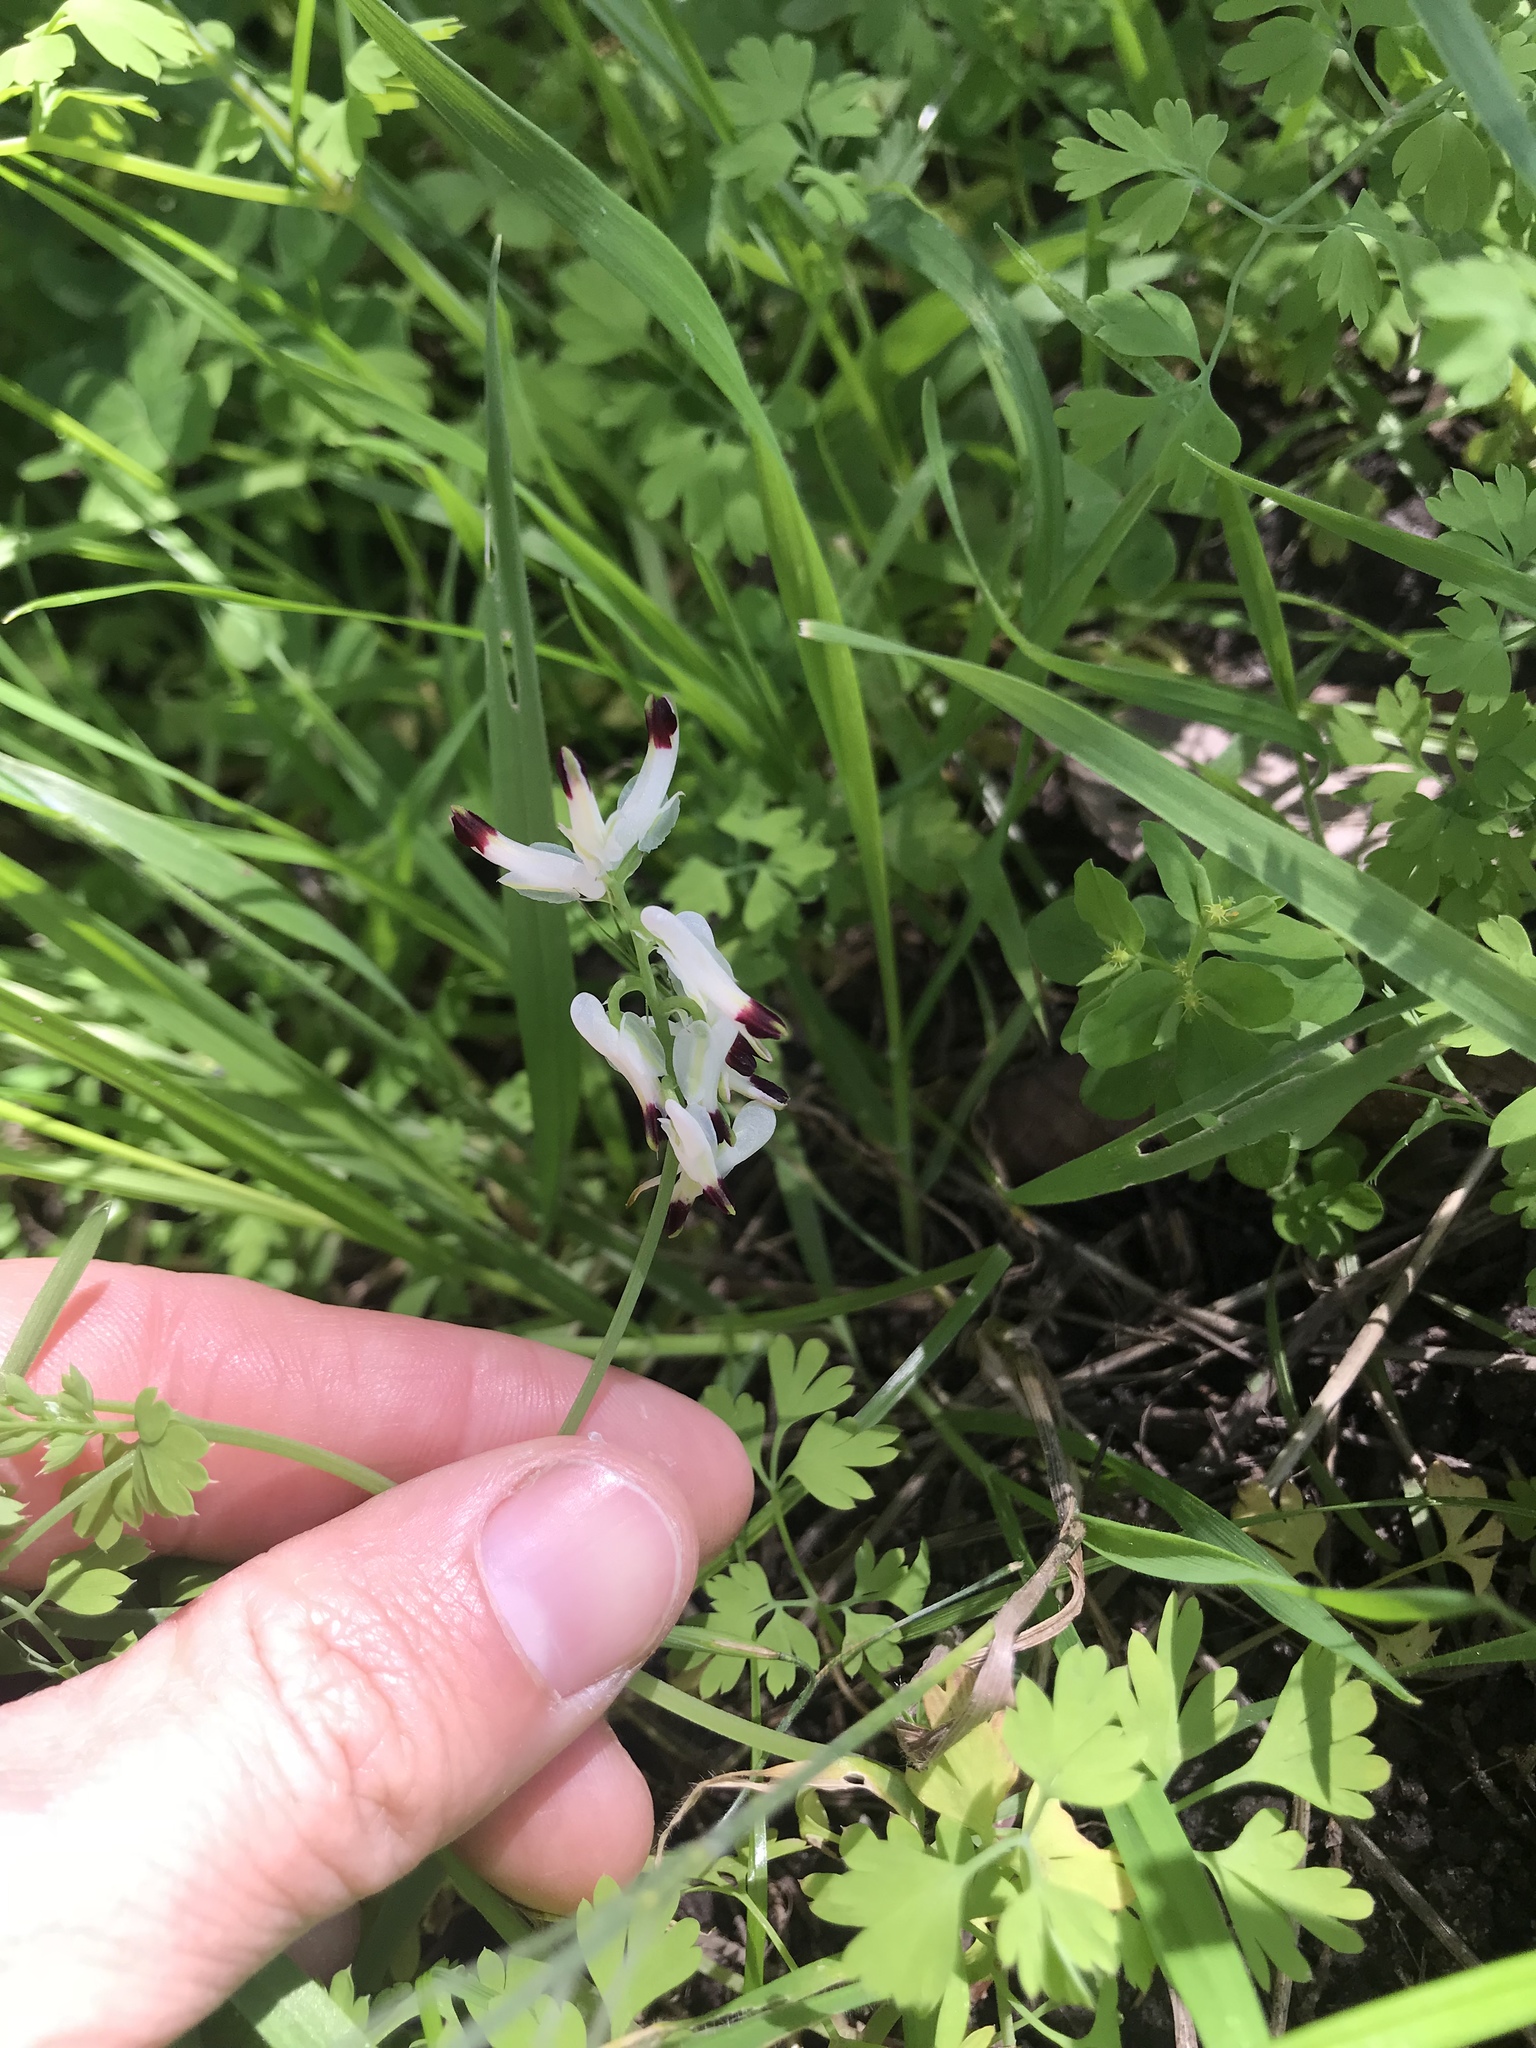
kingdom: Plantae
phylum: Tracheophyta
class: Magnoliopsida
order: Ranunculales
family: Papaveraceae
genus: Fumaria
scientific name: Fumaria capreolata
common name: White ramping-fumitory
